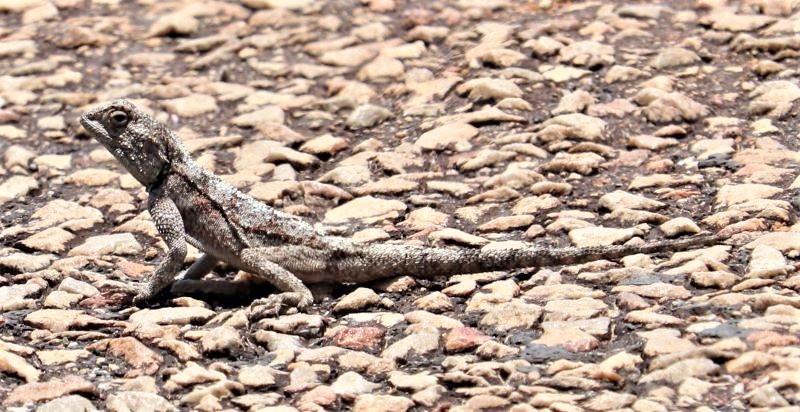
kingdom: Animalia
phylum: Chordata
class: Squamata
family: Agamidae
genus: Agama
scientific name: Agama atra
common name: Southern african rock agama
